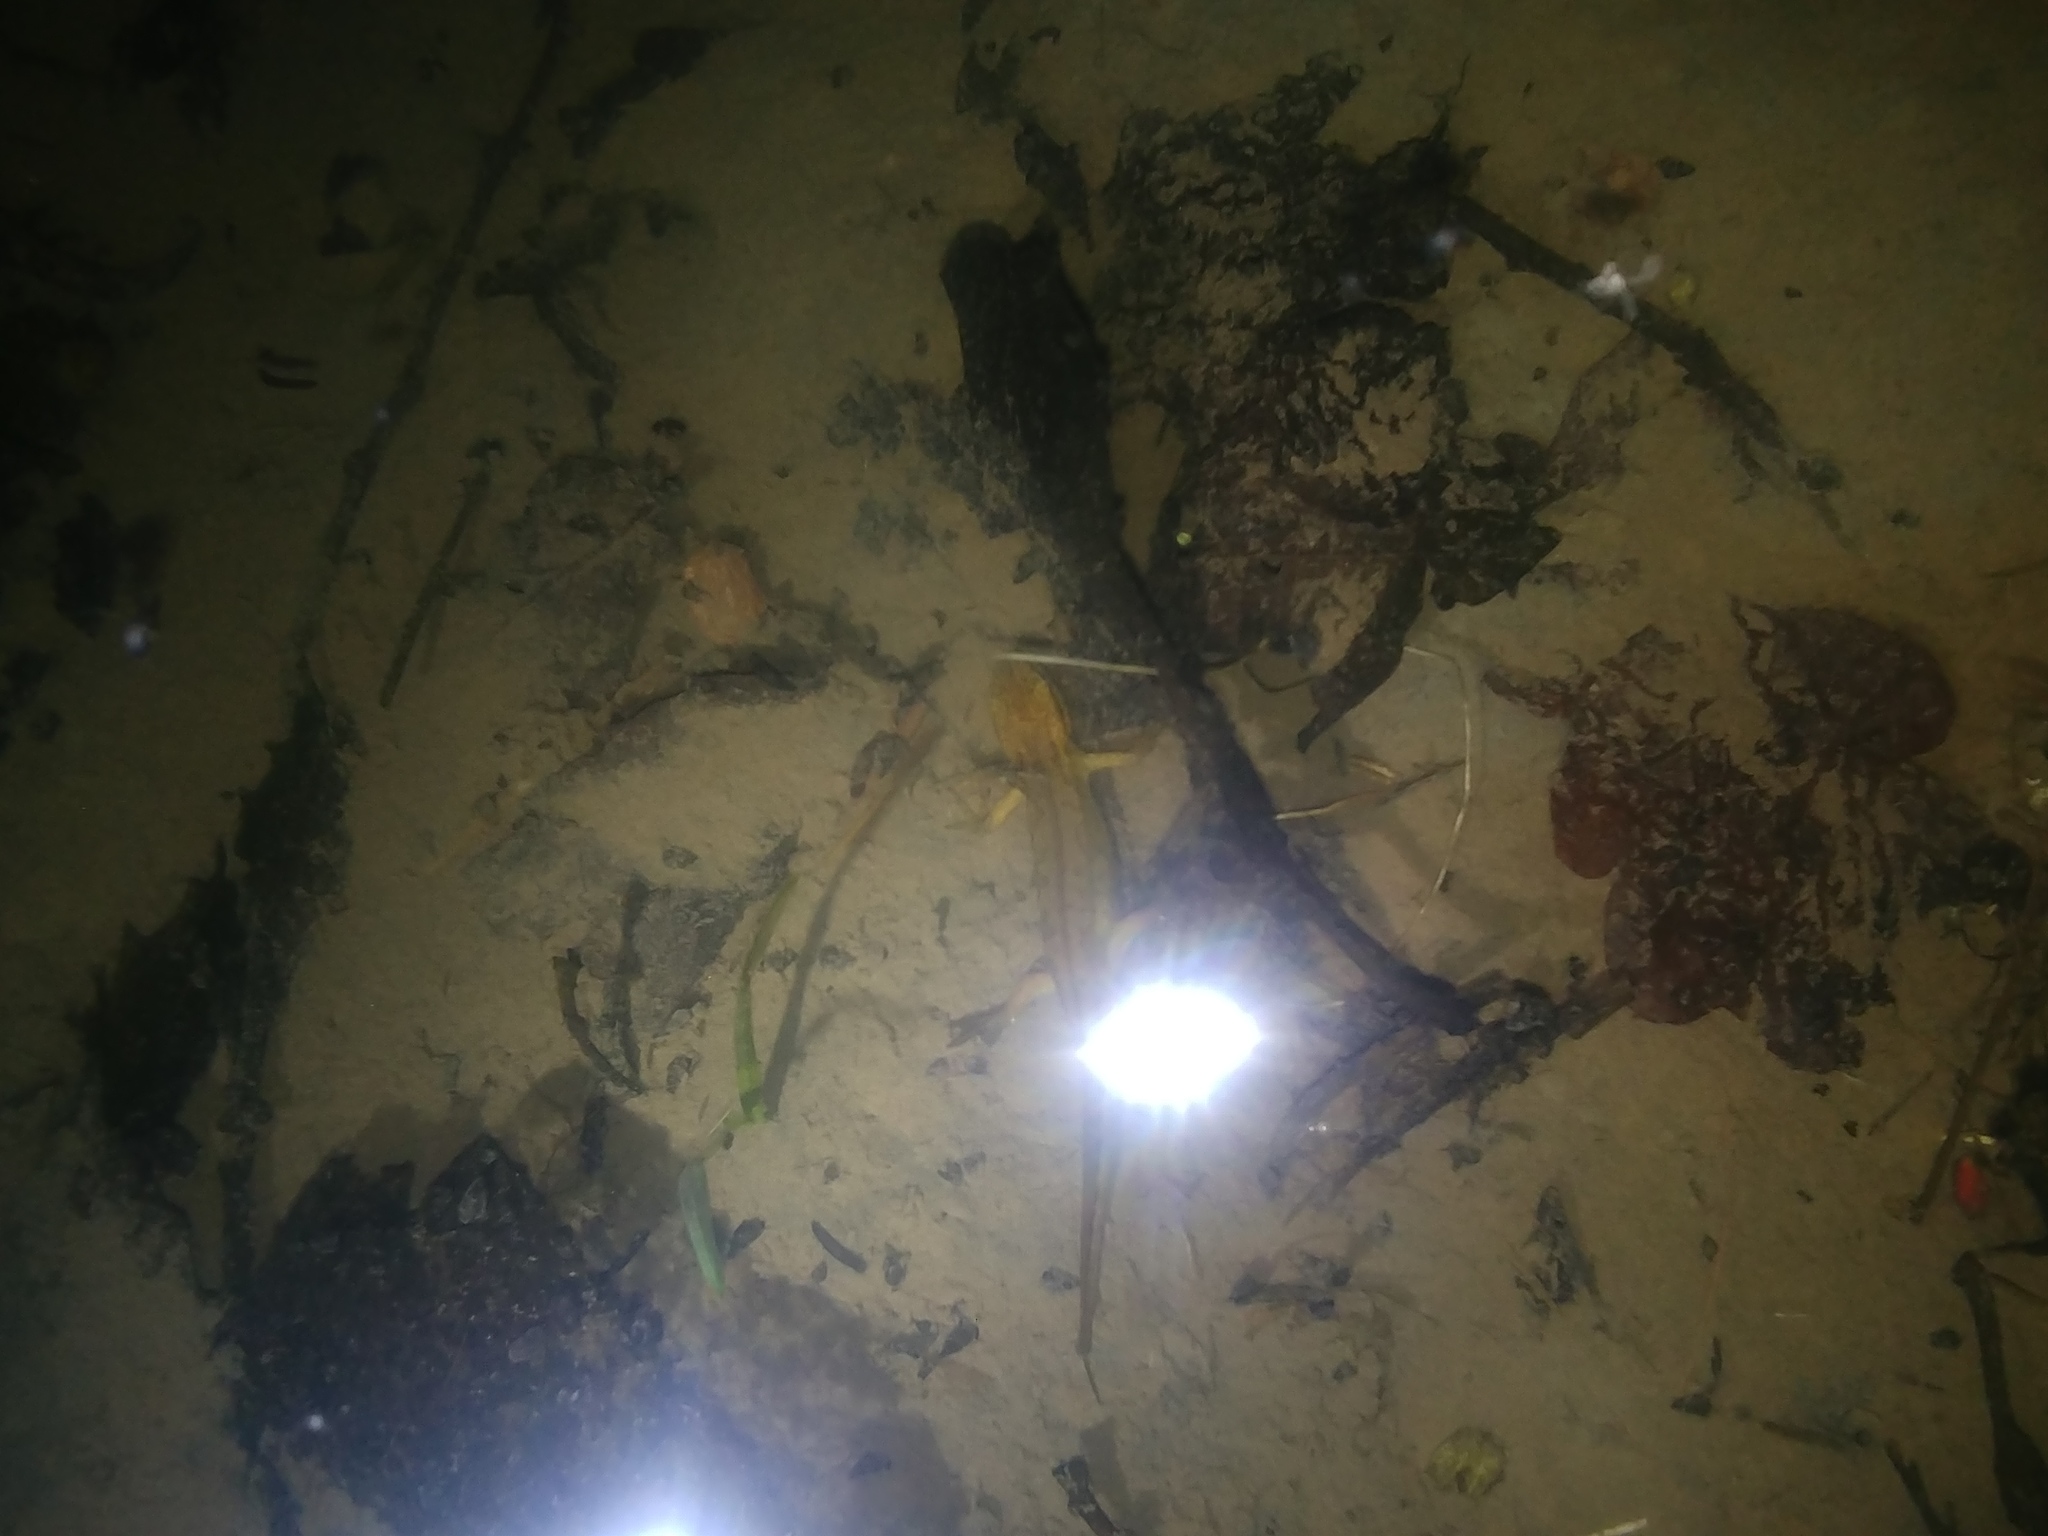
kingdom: Animalia
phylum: Chordata
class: Amphibia
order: Caudata
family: Salamandridae
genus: Lissotriton
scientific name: Lissotriton helveticus
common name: Palmate newt
